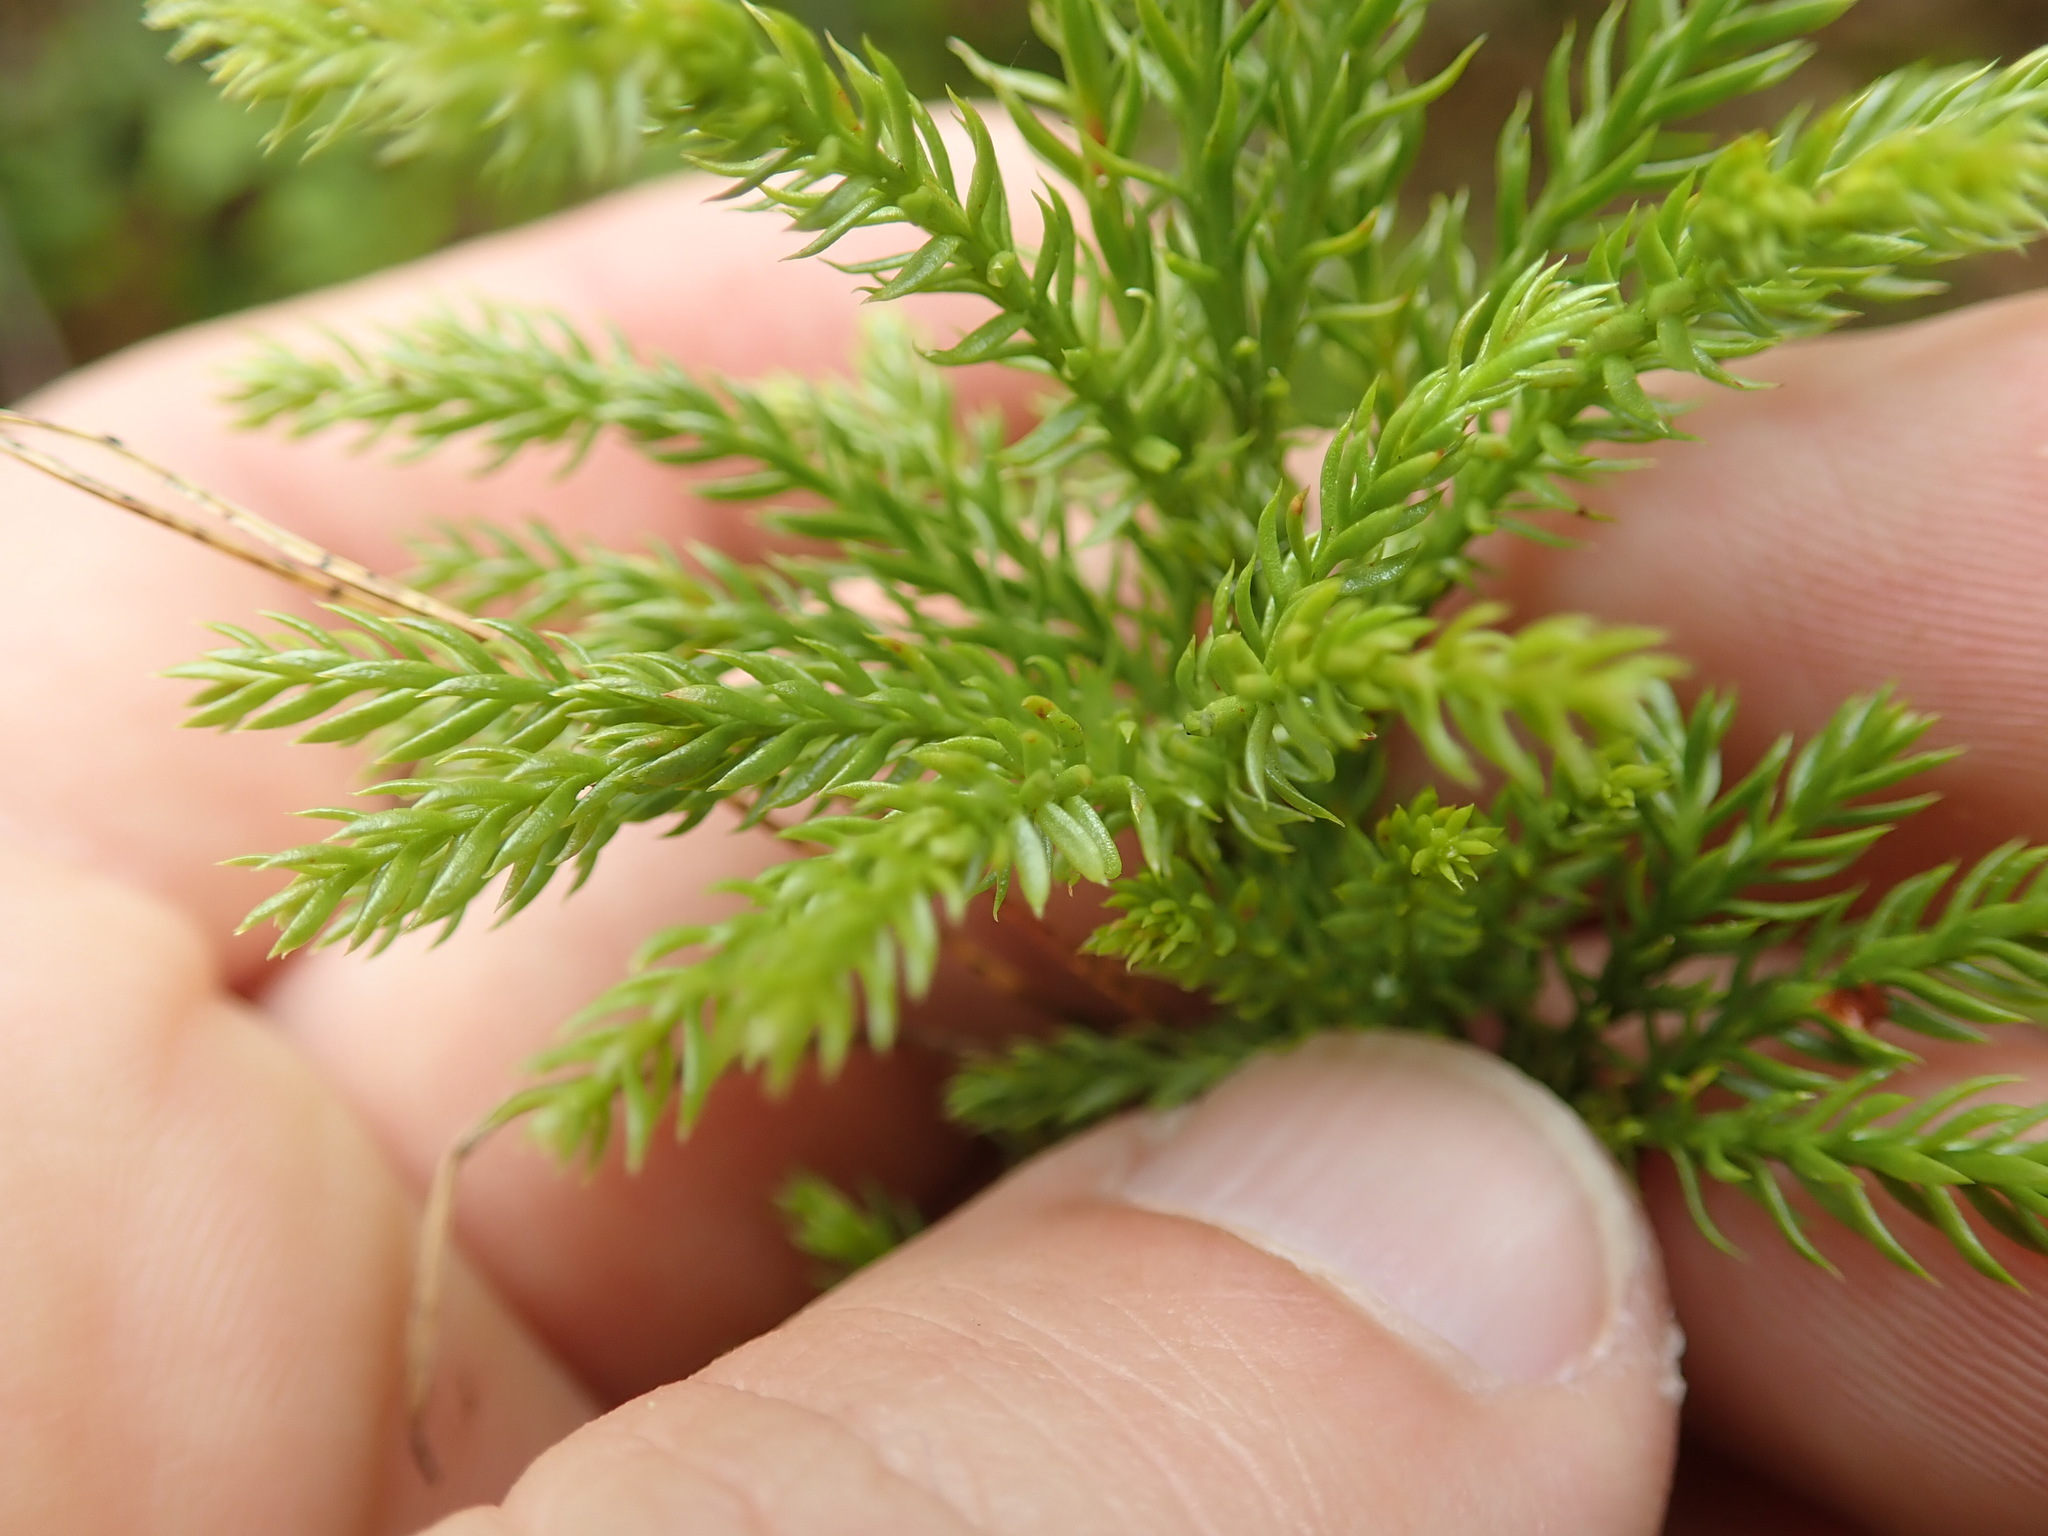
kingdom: Plantae
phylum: Tracheophyta
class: Lycopodiopsida
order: Lycopodiales
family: Lycopodiaceae
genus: Dendrolycopodium
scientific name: Dendrolycopodium dendroideum
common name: Northern tree-clubmoss
